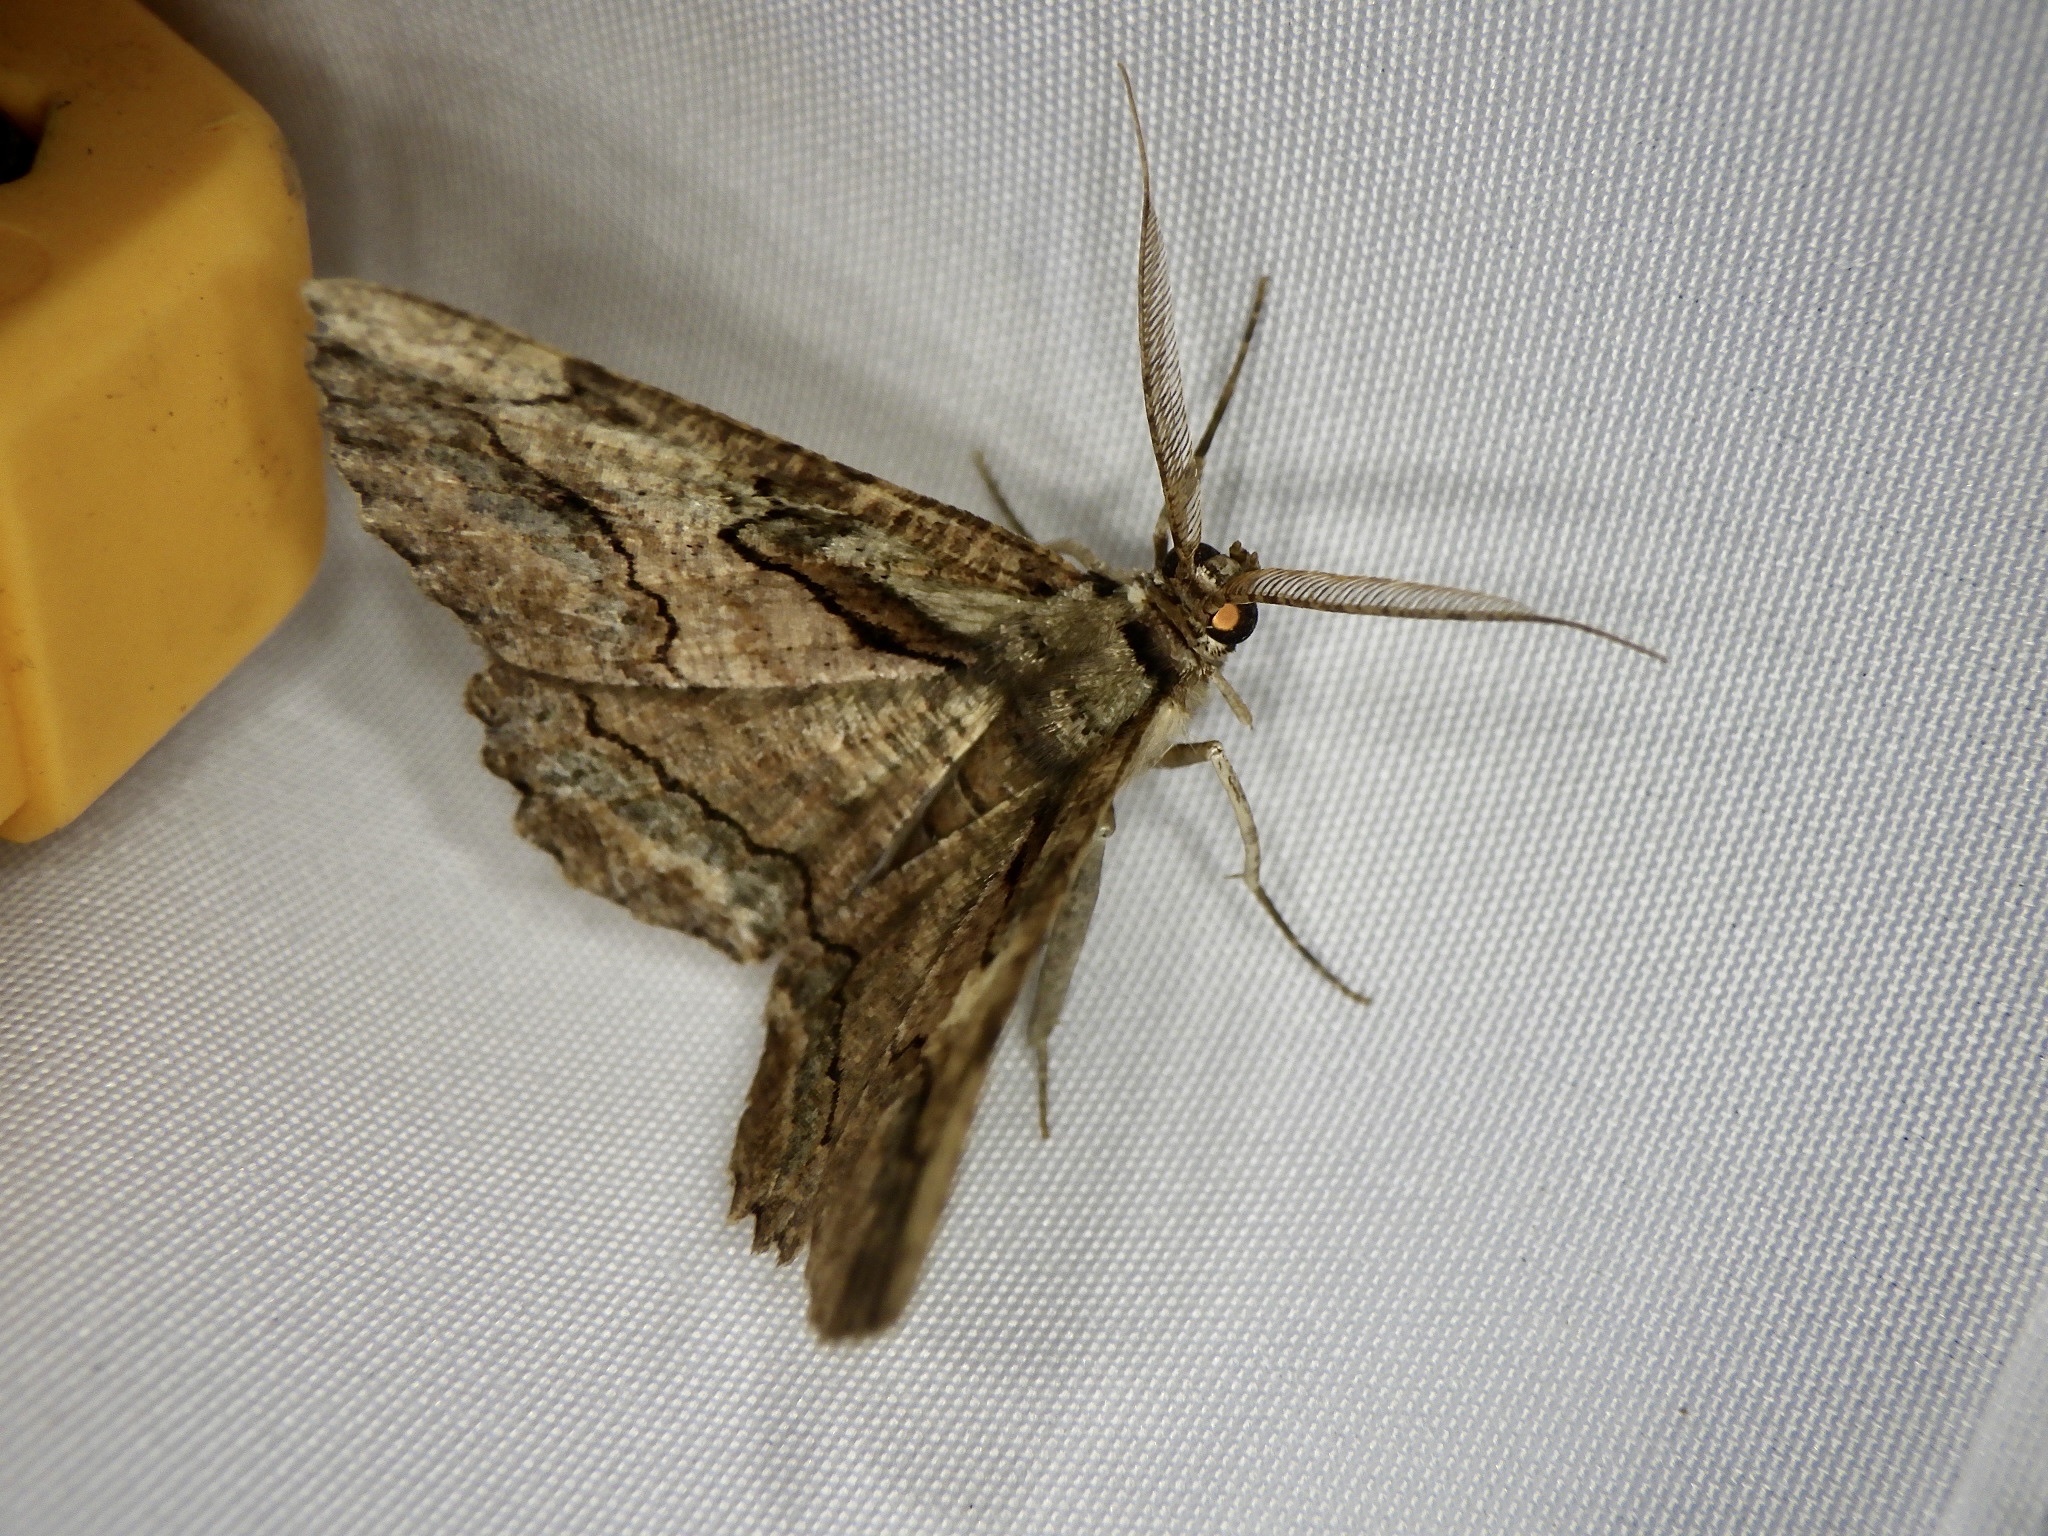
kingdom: Animalia
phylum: Arthropoda
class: Insecta
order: Lepidoptera
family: Geometridae
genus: Menophra
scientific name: Menophra senilis
